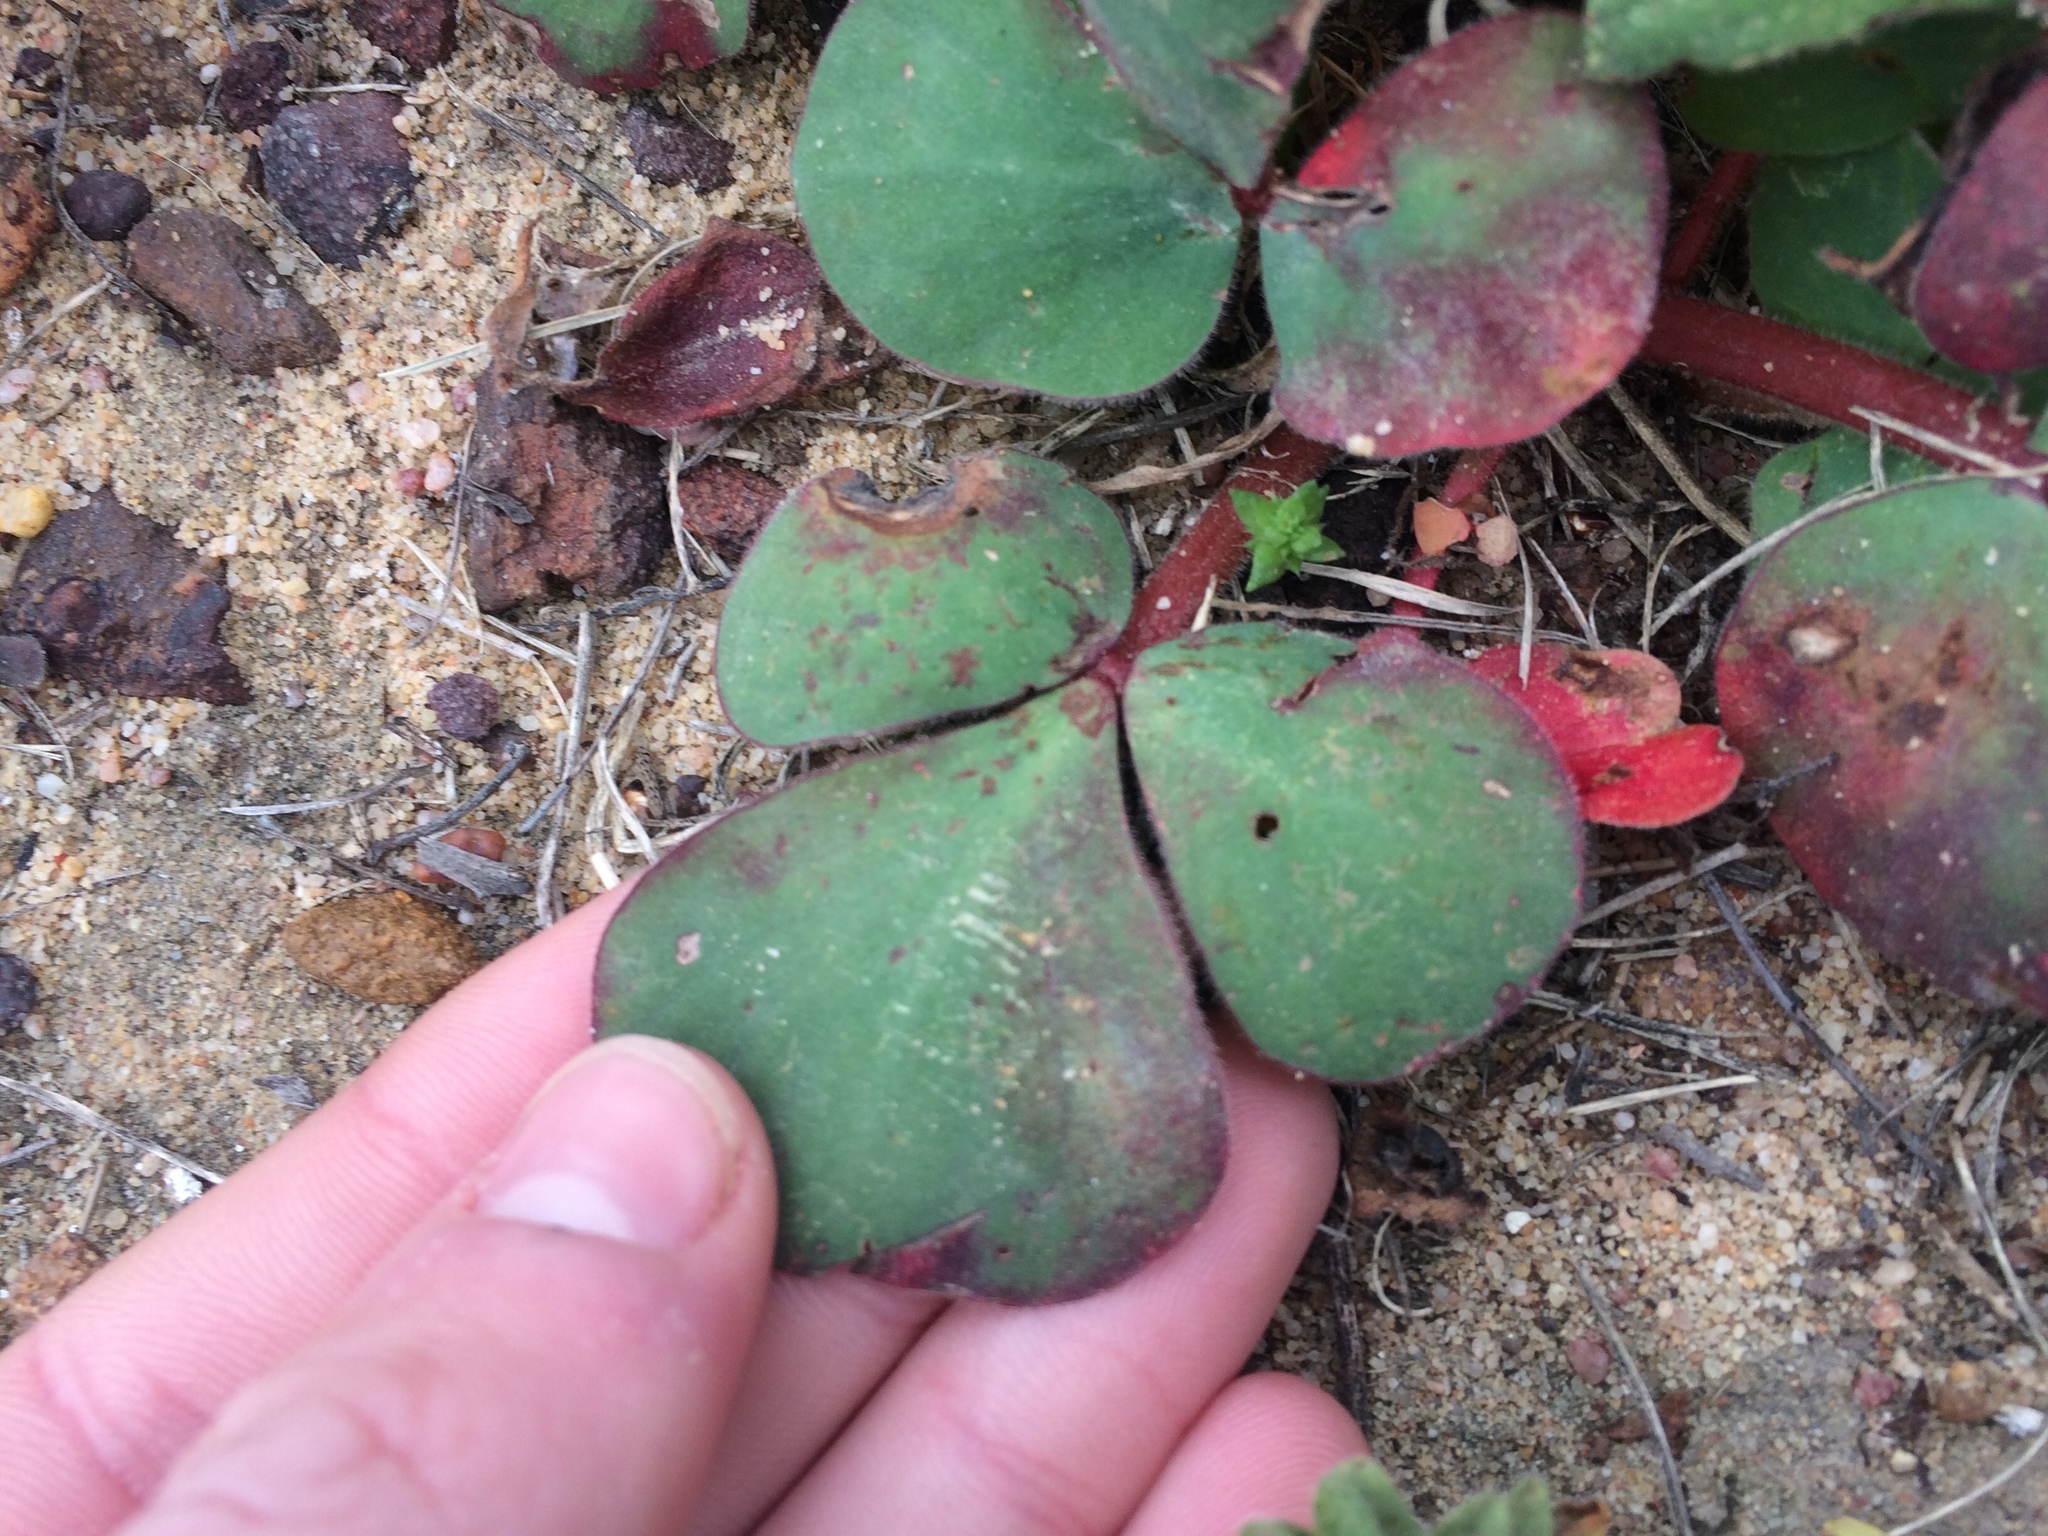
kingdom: Plantae
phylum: Tracheophyta
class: Magnoliopsida
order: Oxalidales
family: Oxalidaceae
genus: Oxalis
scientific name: Oxalis purpurea
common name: Purple woodsorrel
